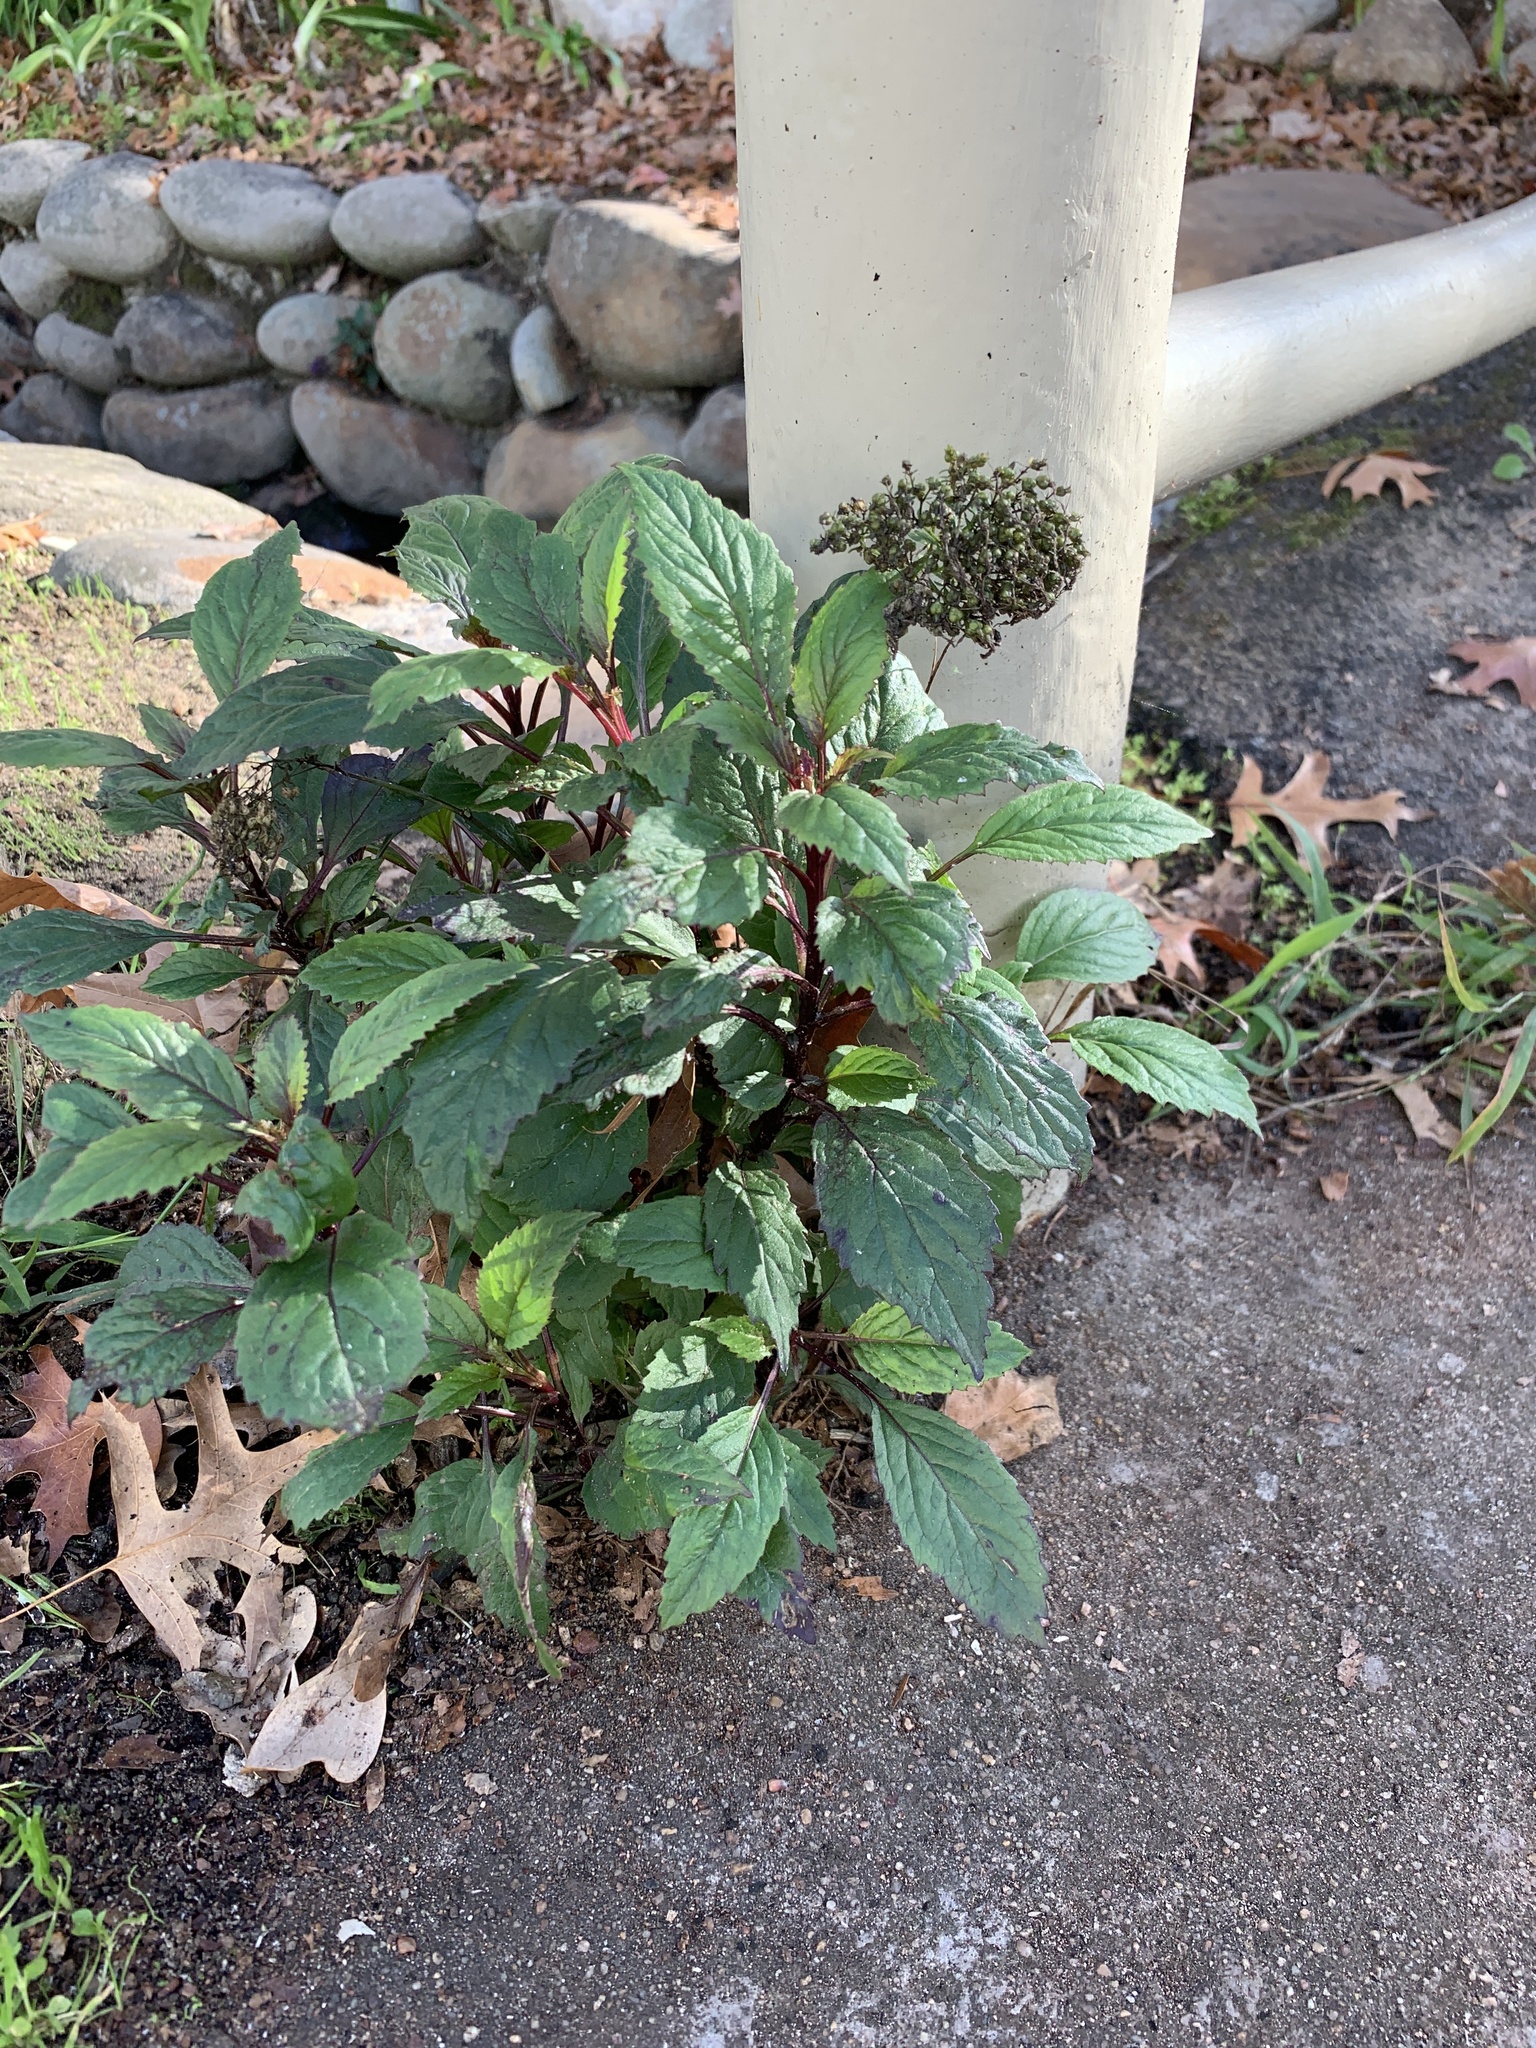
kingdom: Plantae
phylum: Tracheophyta
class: Magnoliopsida
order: Asterales
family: Campanulaceae
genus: Trachelium
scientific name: Trachelium caeruleum
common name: Throatwort
